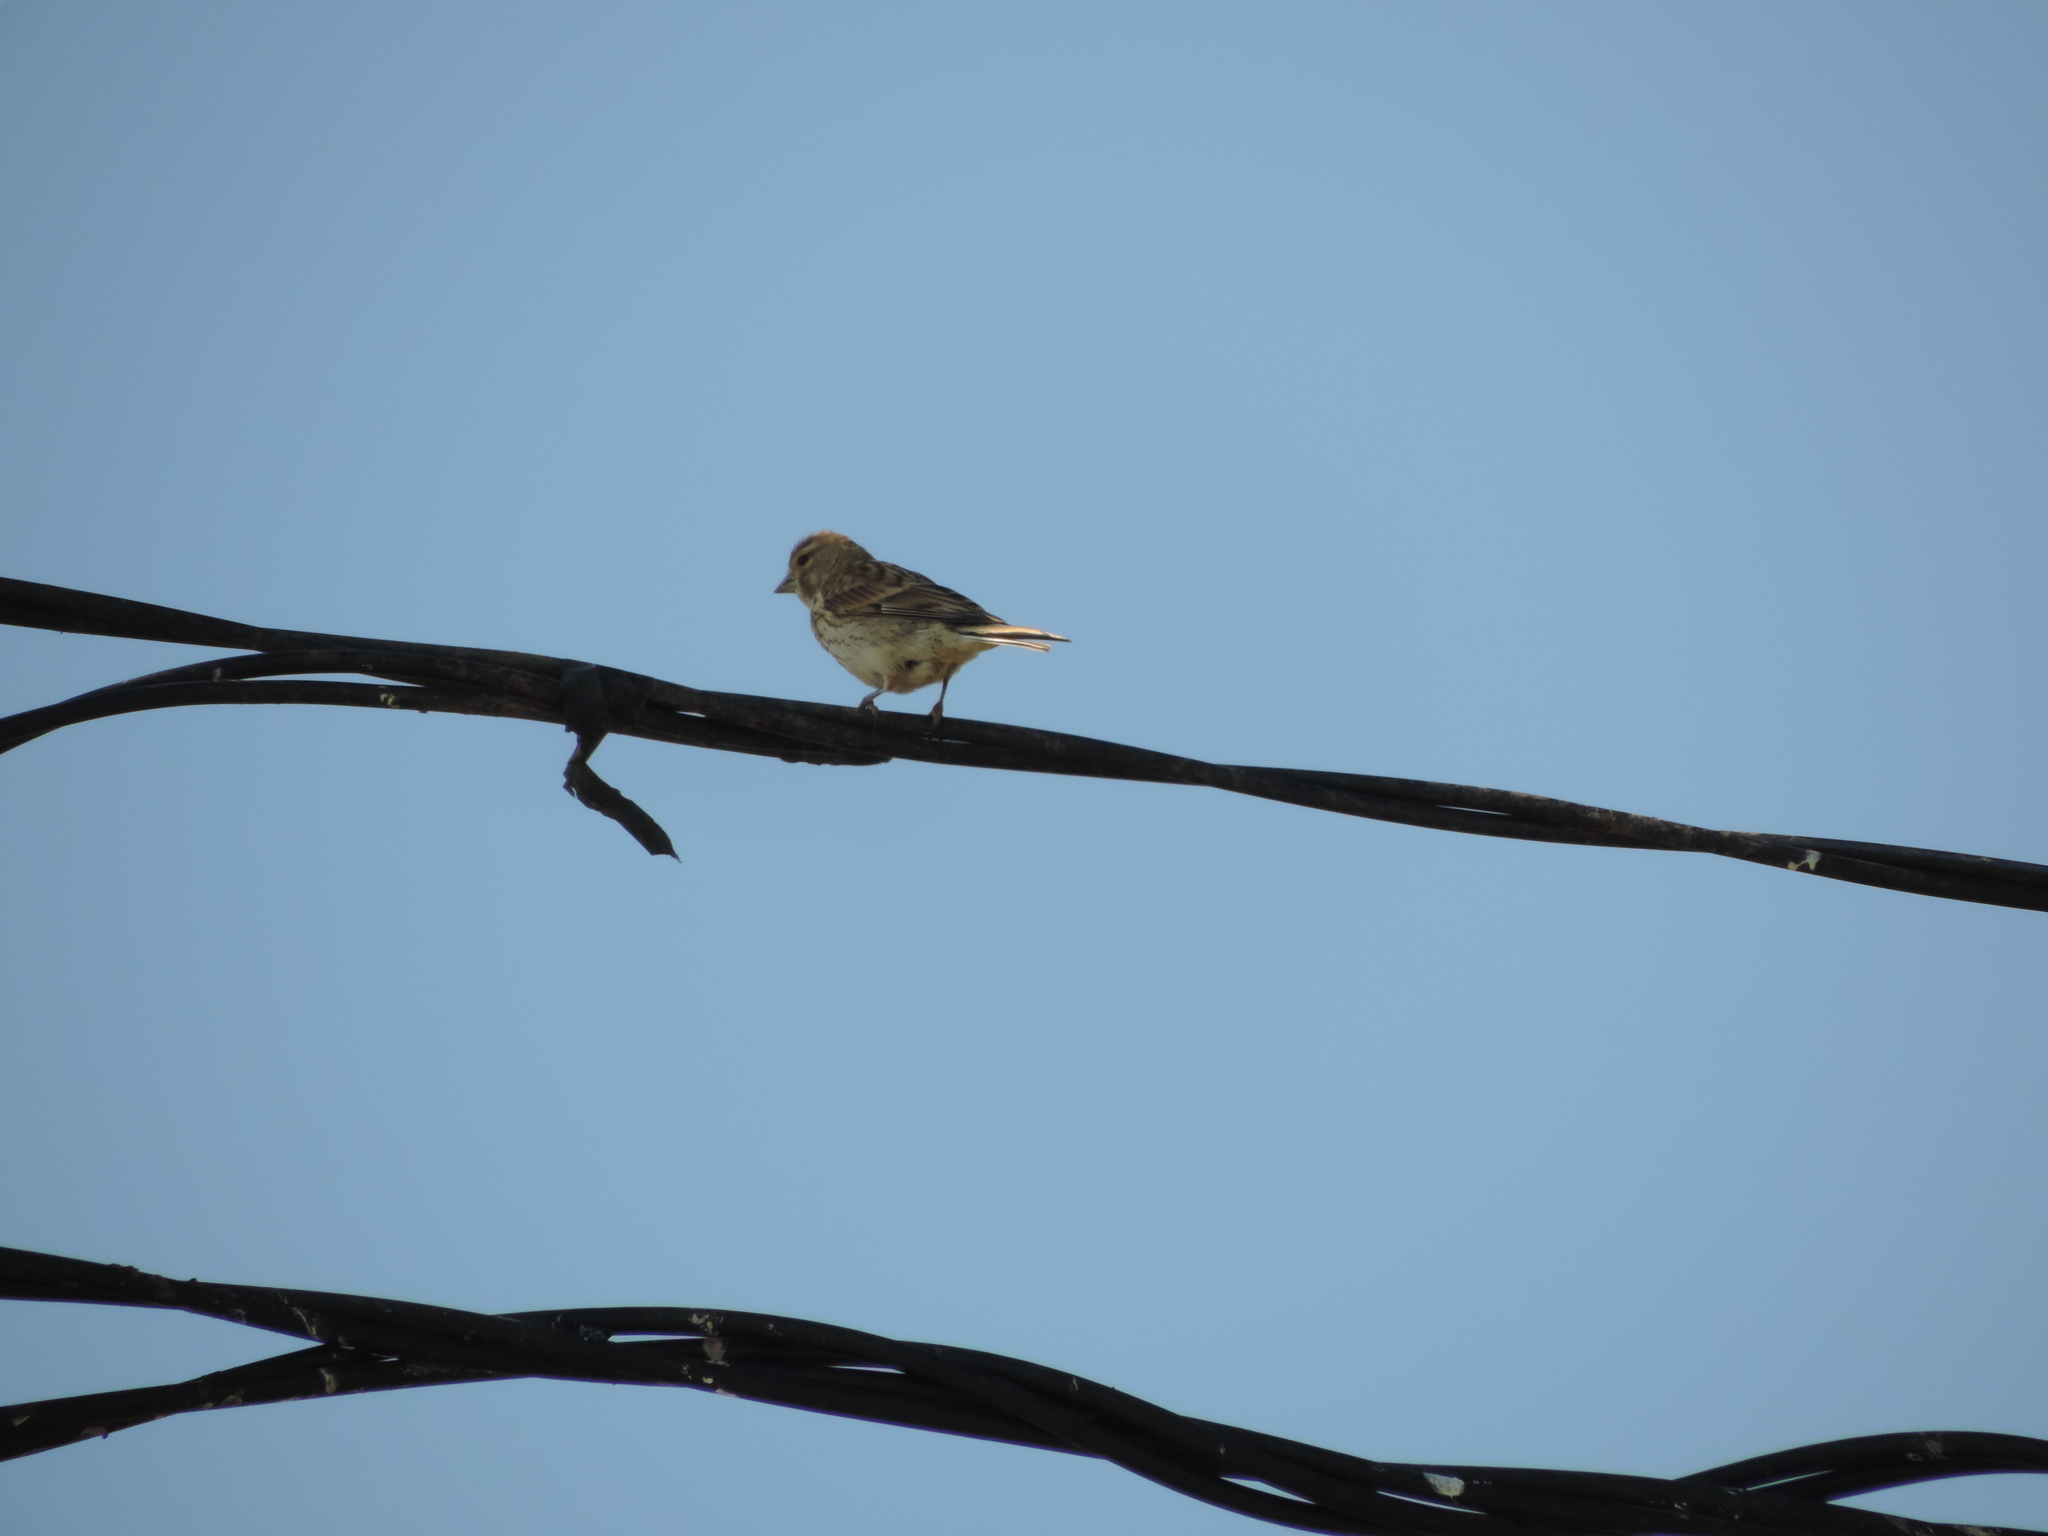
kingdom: Animalia
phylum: Chordata
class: Aves
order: Passeriformes
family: Fringillidae
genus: Linaria
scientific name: Linaria cannabina
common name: Common linnet
